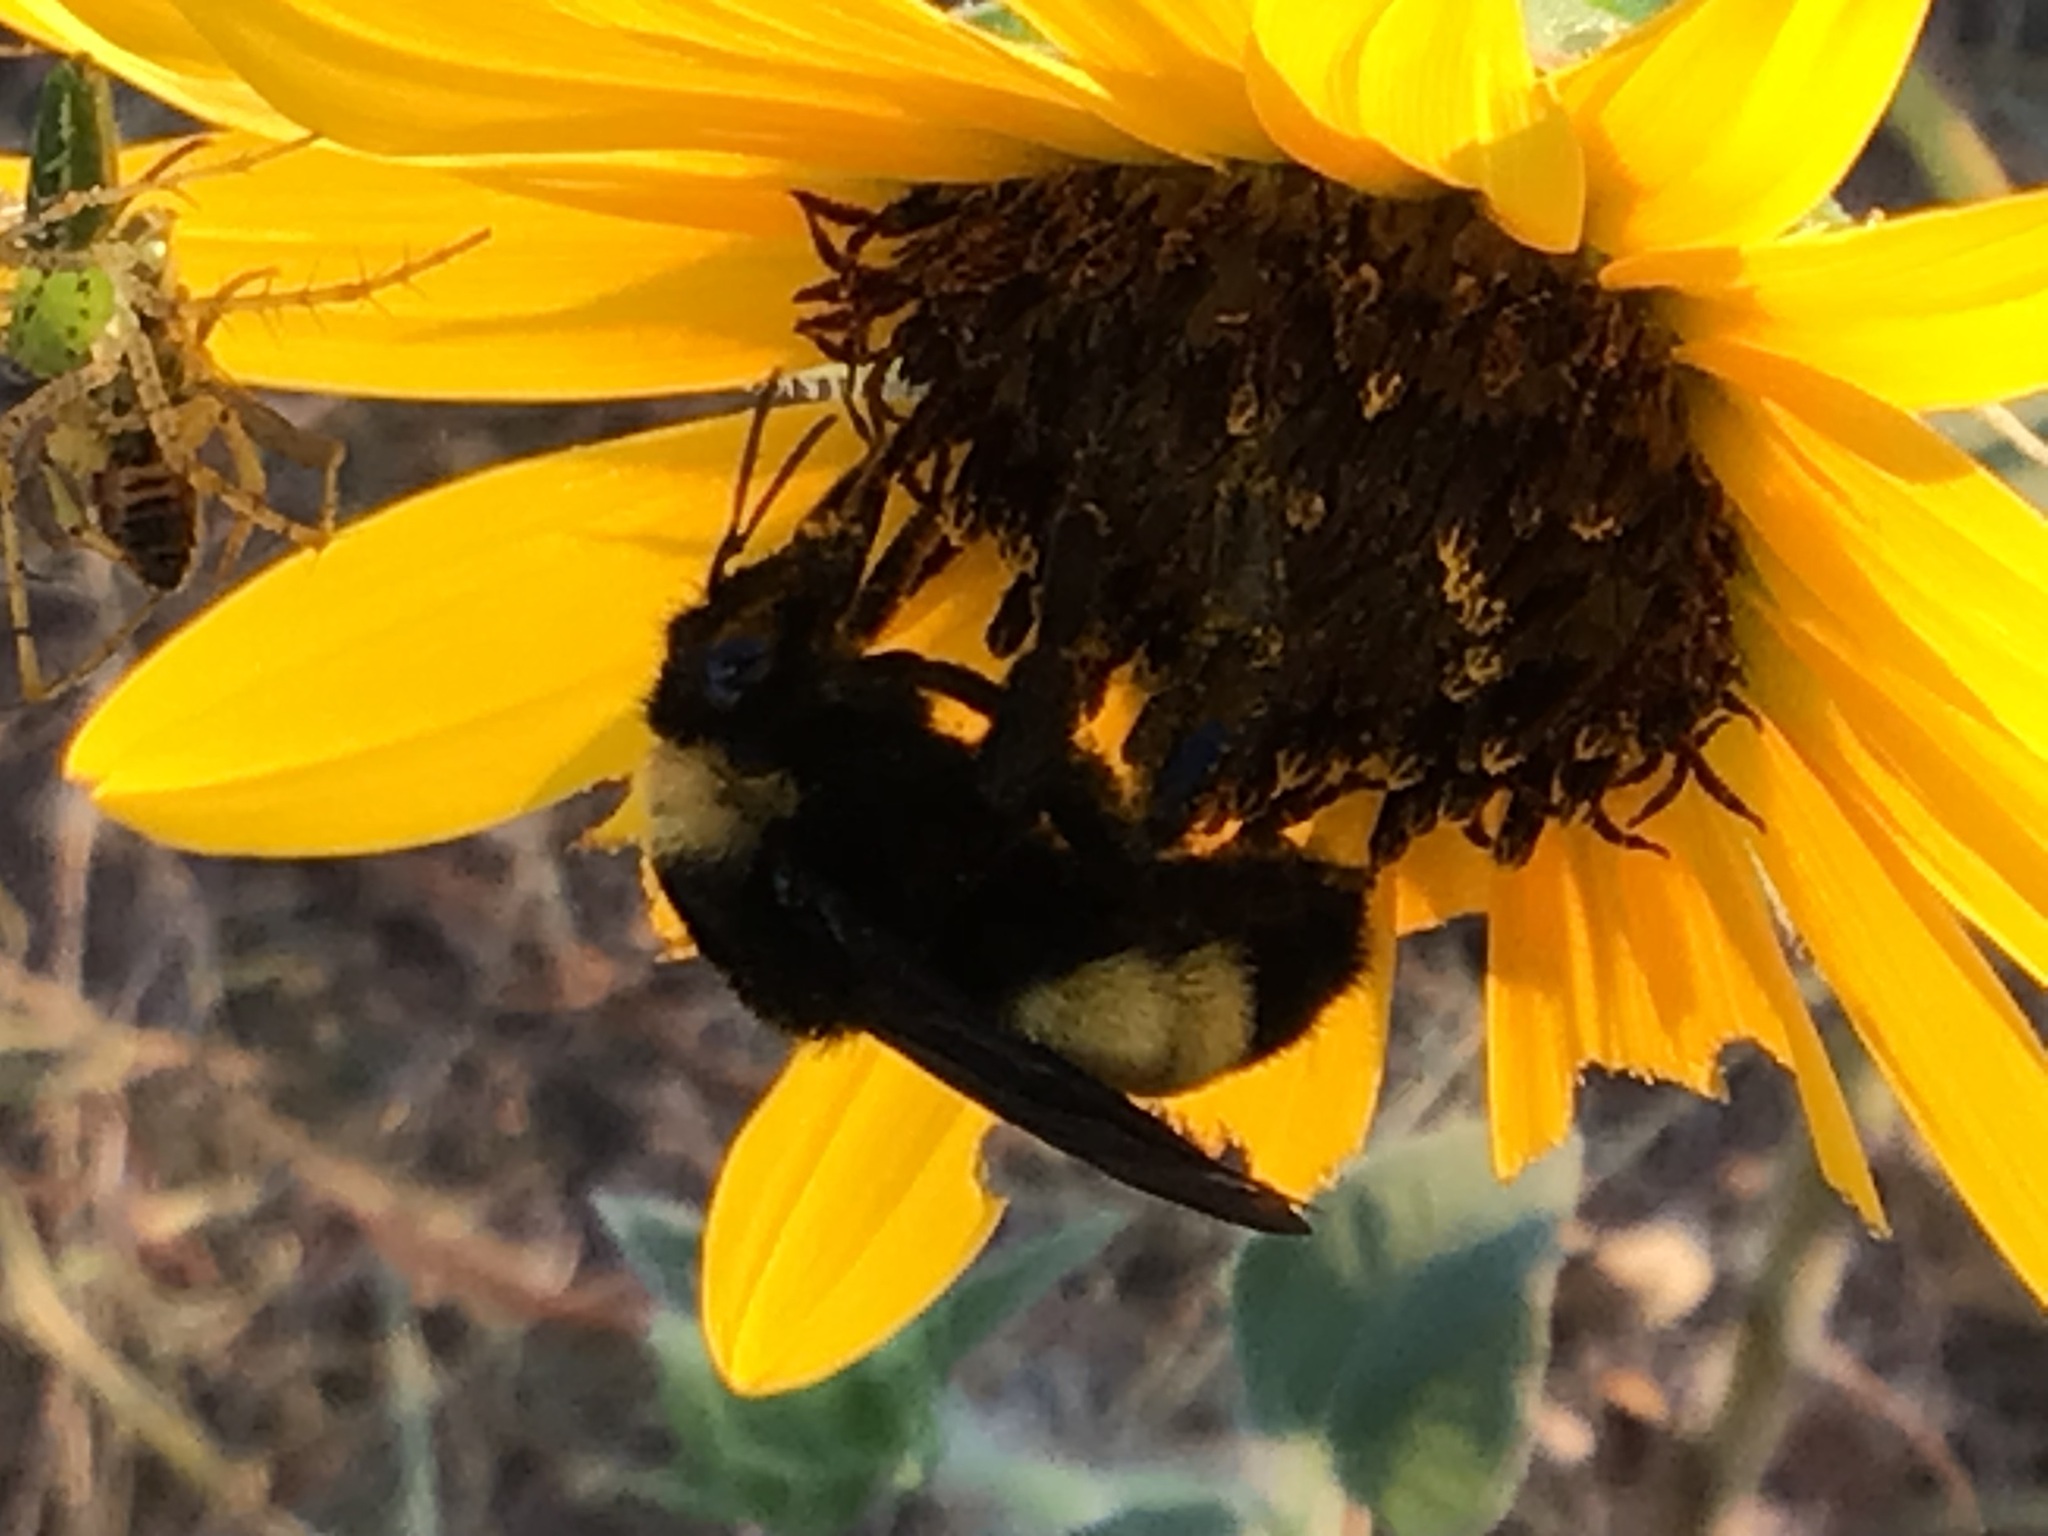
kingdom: Animalia
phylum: Arthropoda
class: Insecta
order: Hymenoptera
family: Apidae
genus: Bombus
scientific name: Bombus pensylvanicus
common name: Bumble bee
